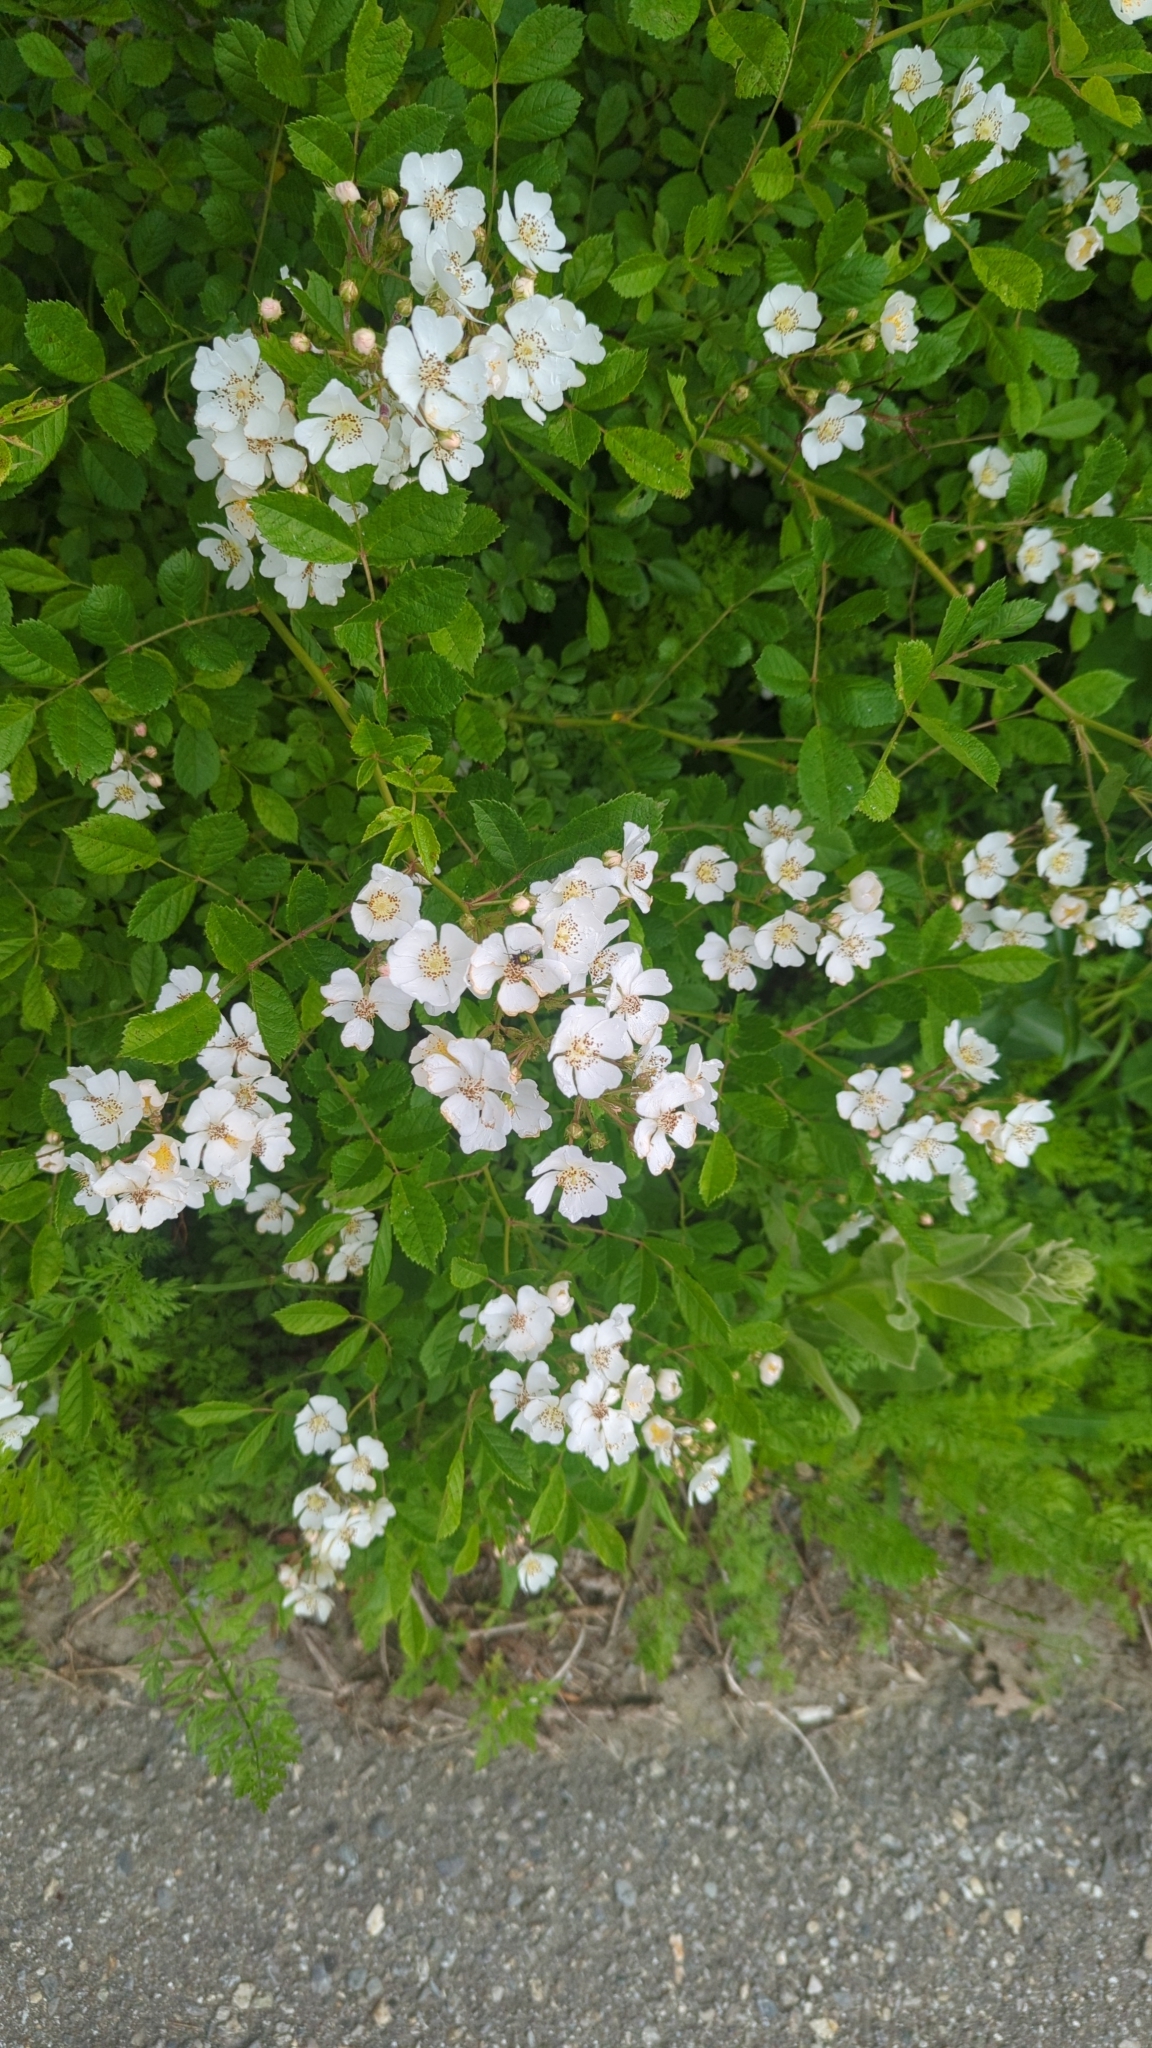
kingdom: Plantae
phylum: Tracheophyta
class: Magnoliopsida
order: Rosales
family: Rosaceae
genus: Rosa
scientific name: Rosa multiflora
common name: Multiflora rose
